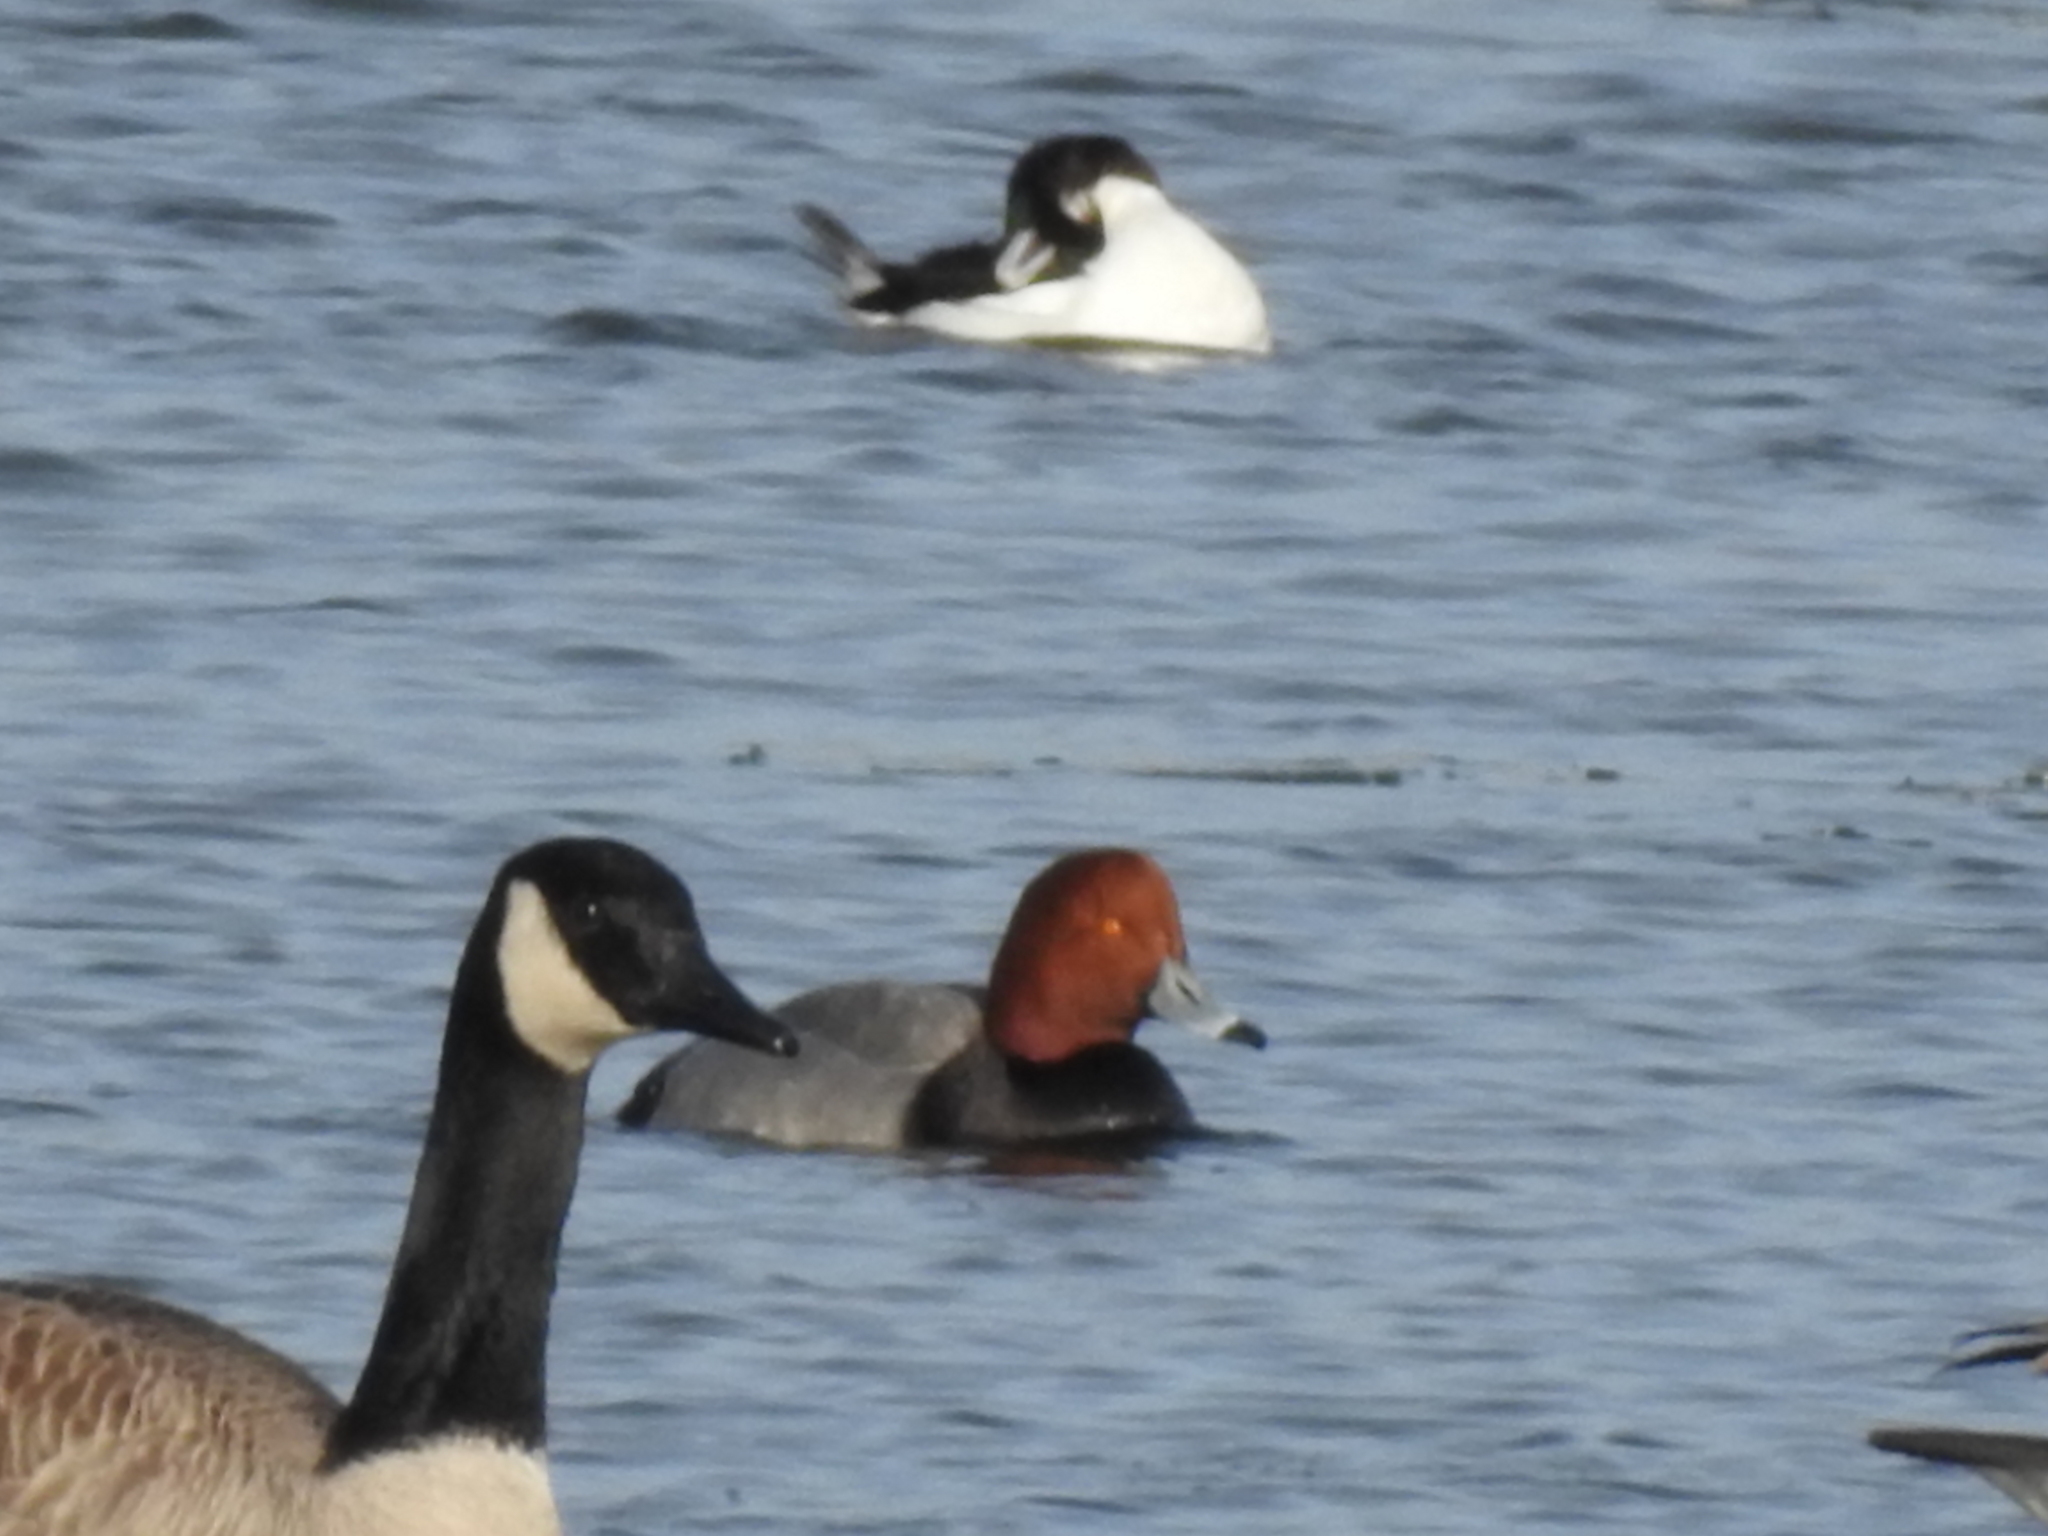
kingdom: Animalia
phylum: Chordata
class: Aves
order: Anseriformes
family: Anatidae
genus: Aythya
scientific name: Aythya americana
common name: Redhead
